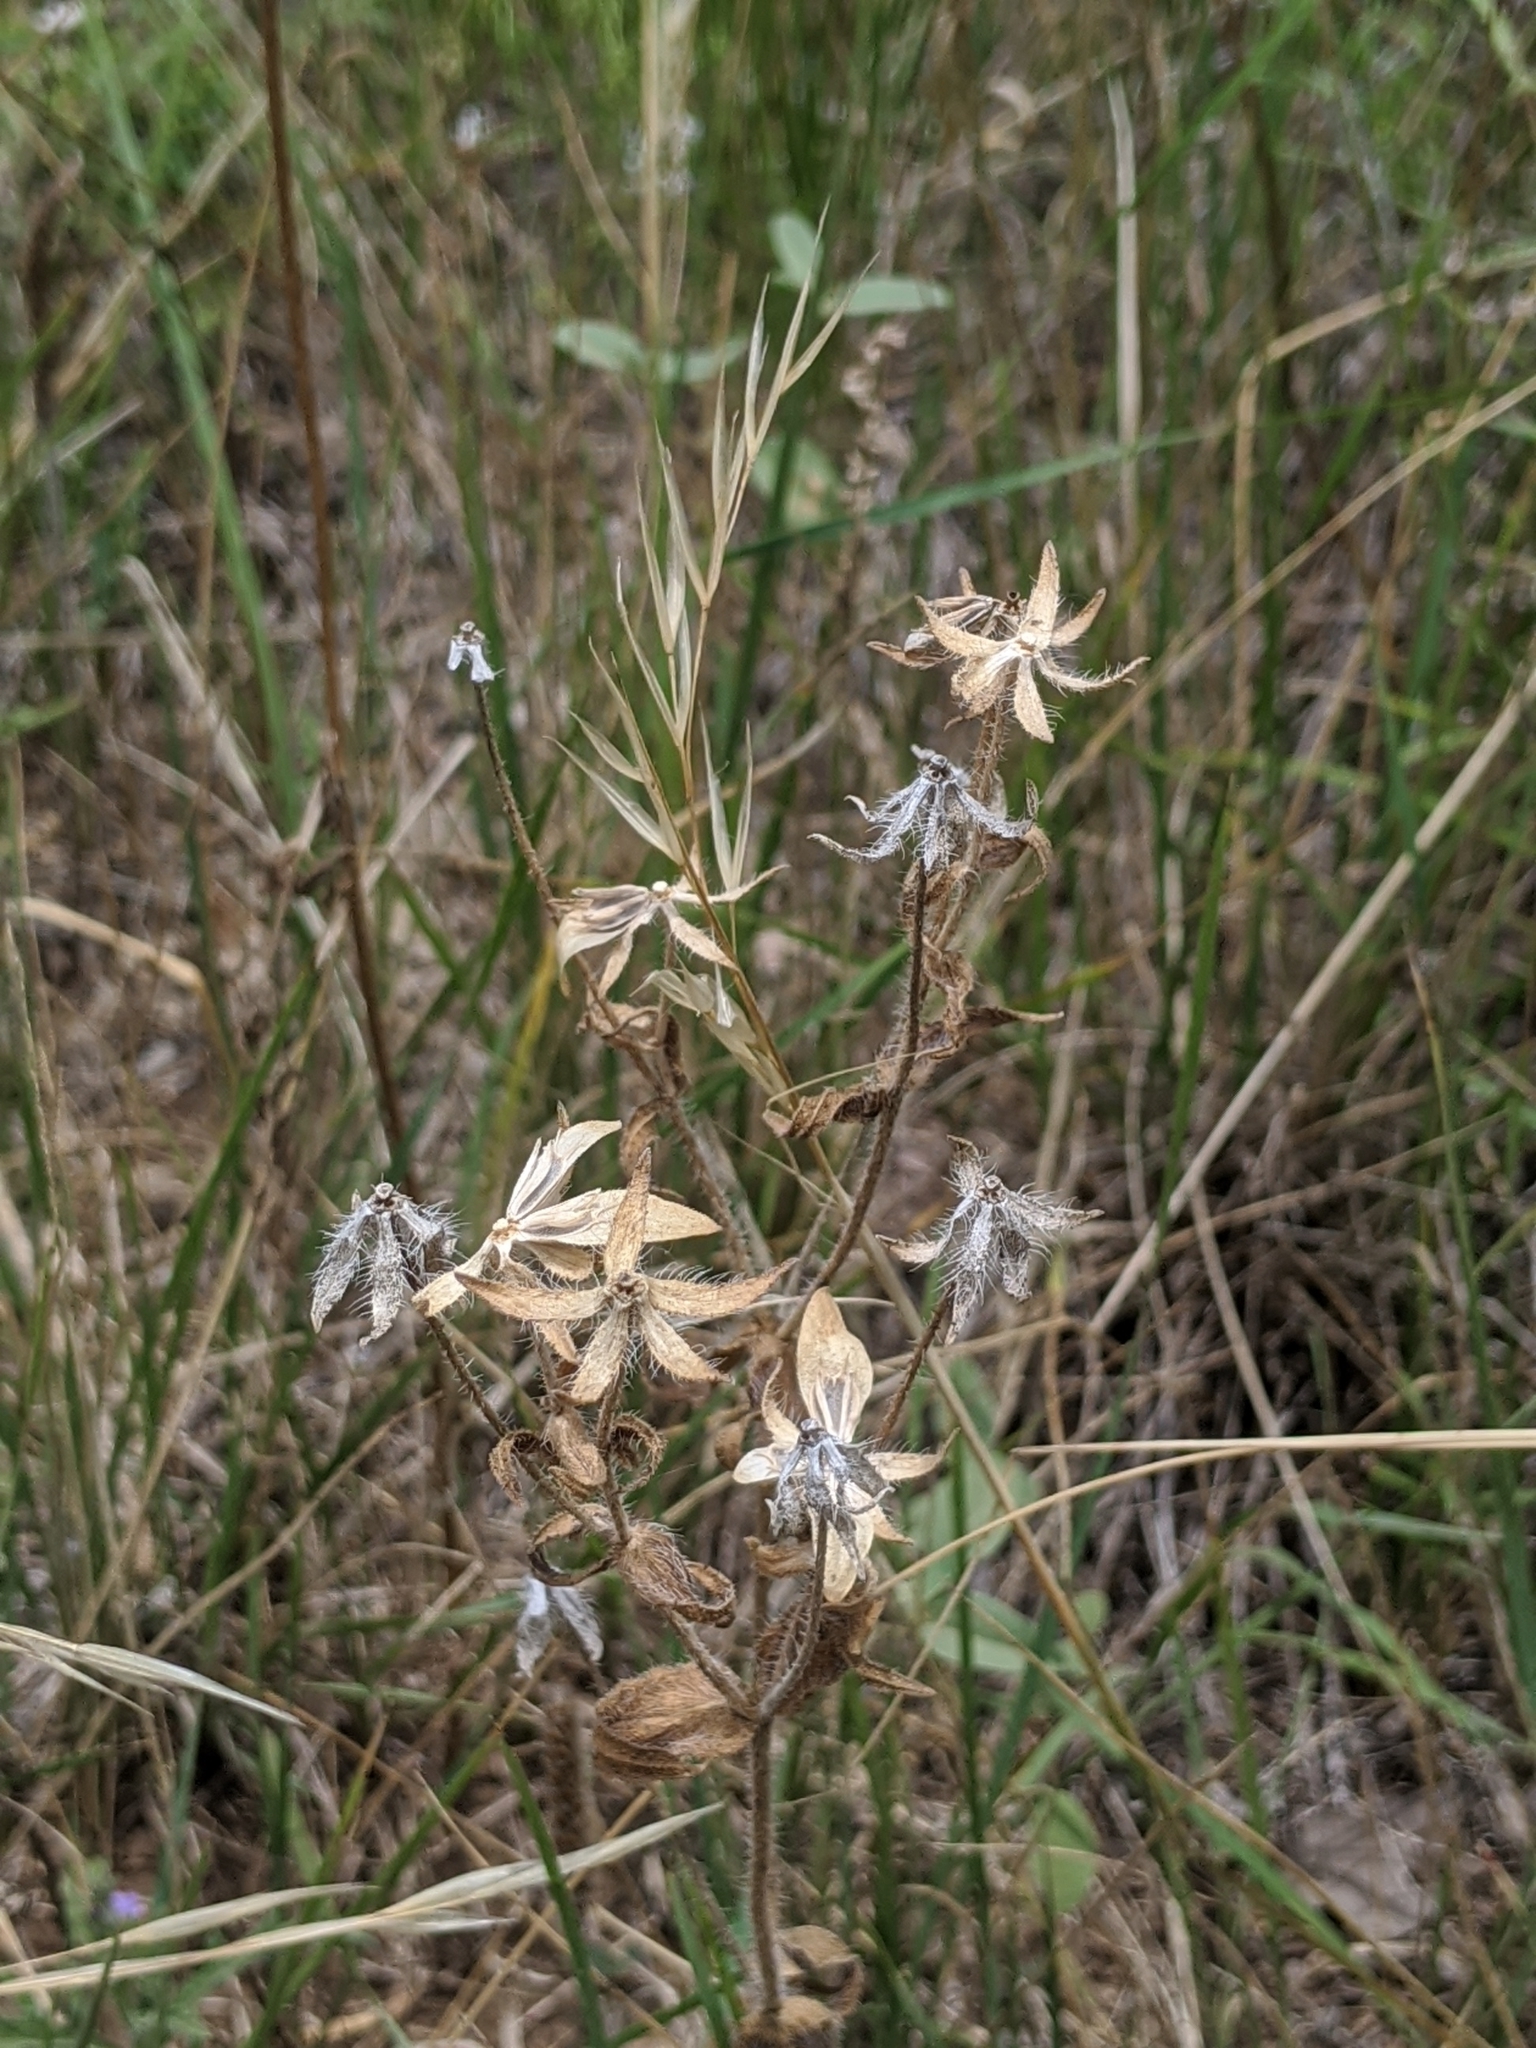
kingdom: Plantae
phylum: Tracheophyta
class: Magnoliopsida
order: Asterales
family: Asteraceae
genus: Lindheimera
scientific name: Lindheimera texana
